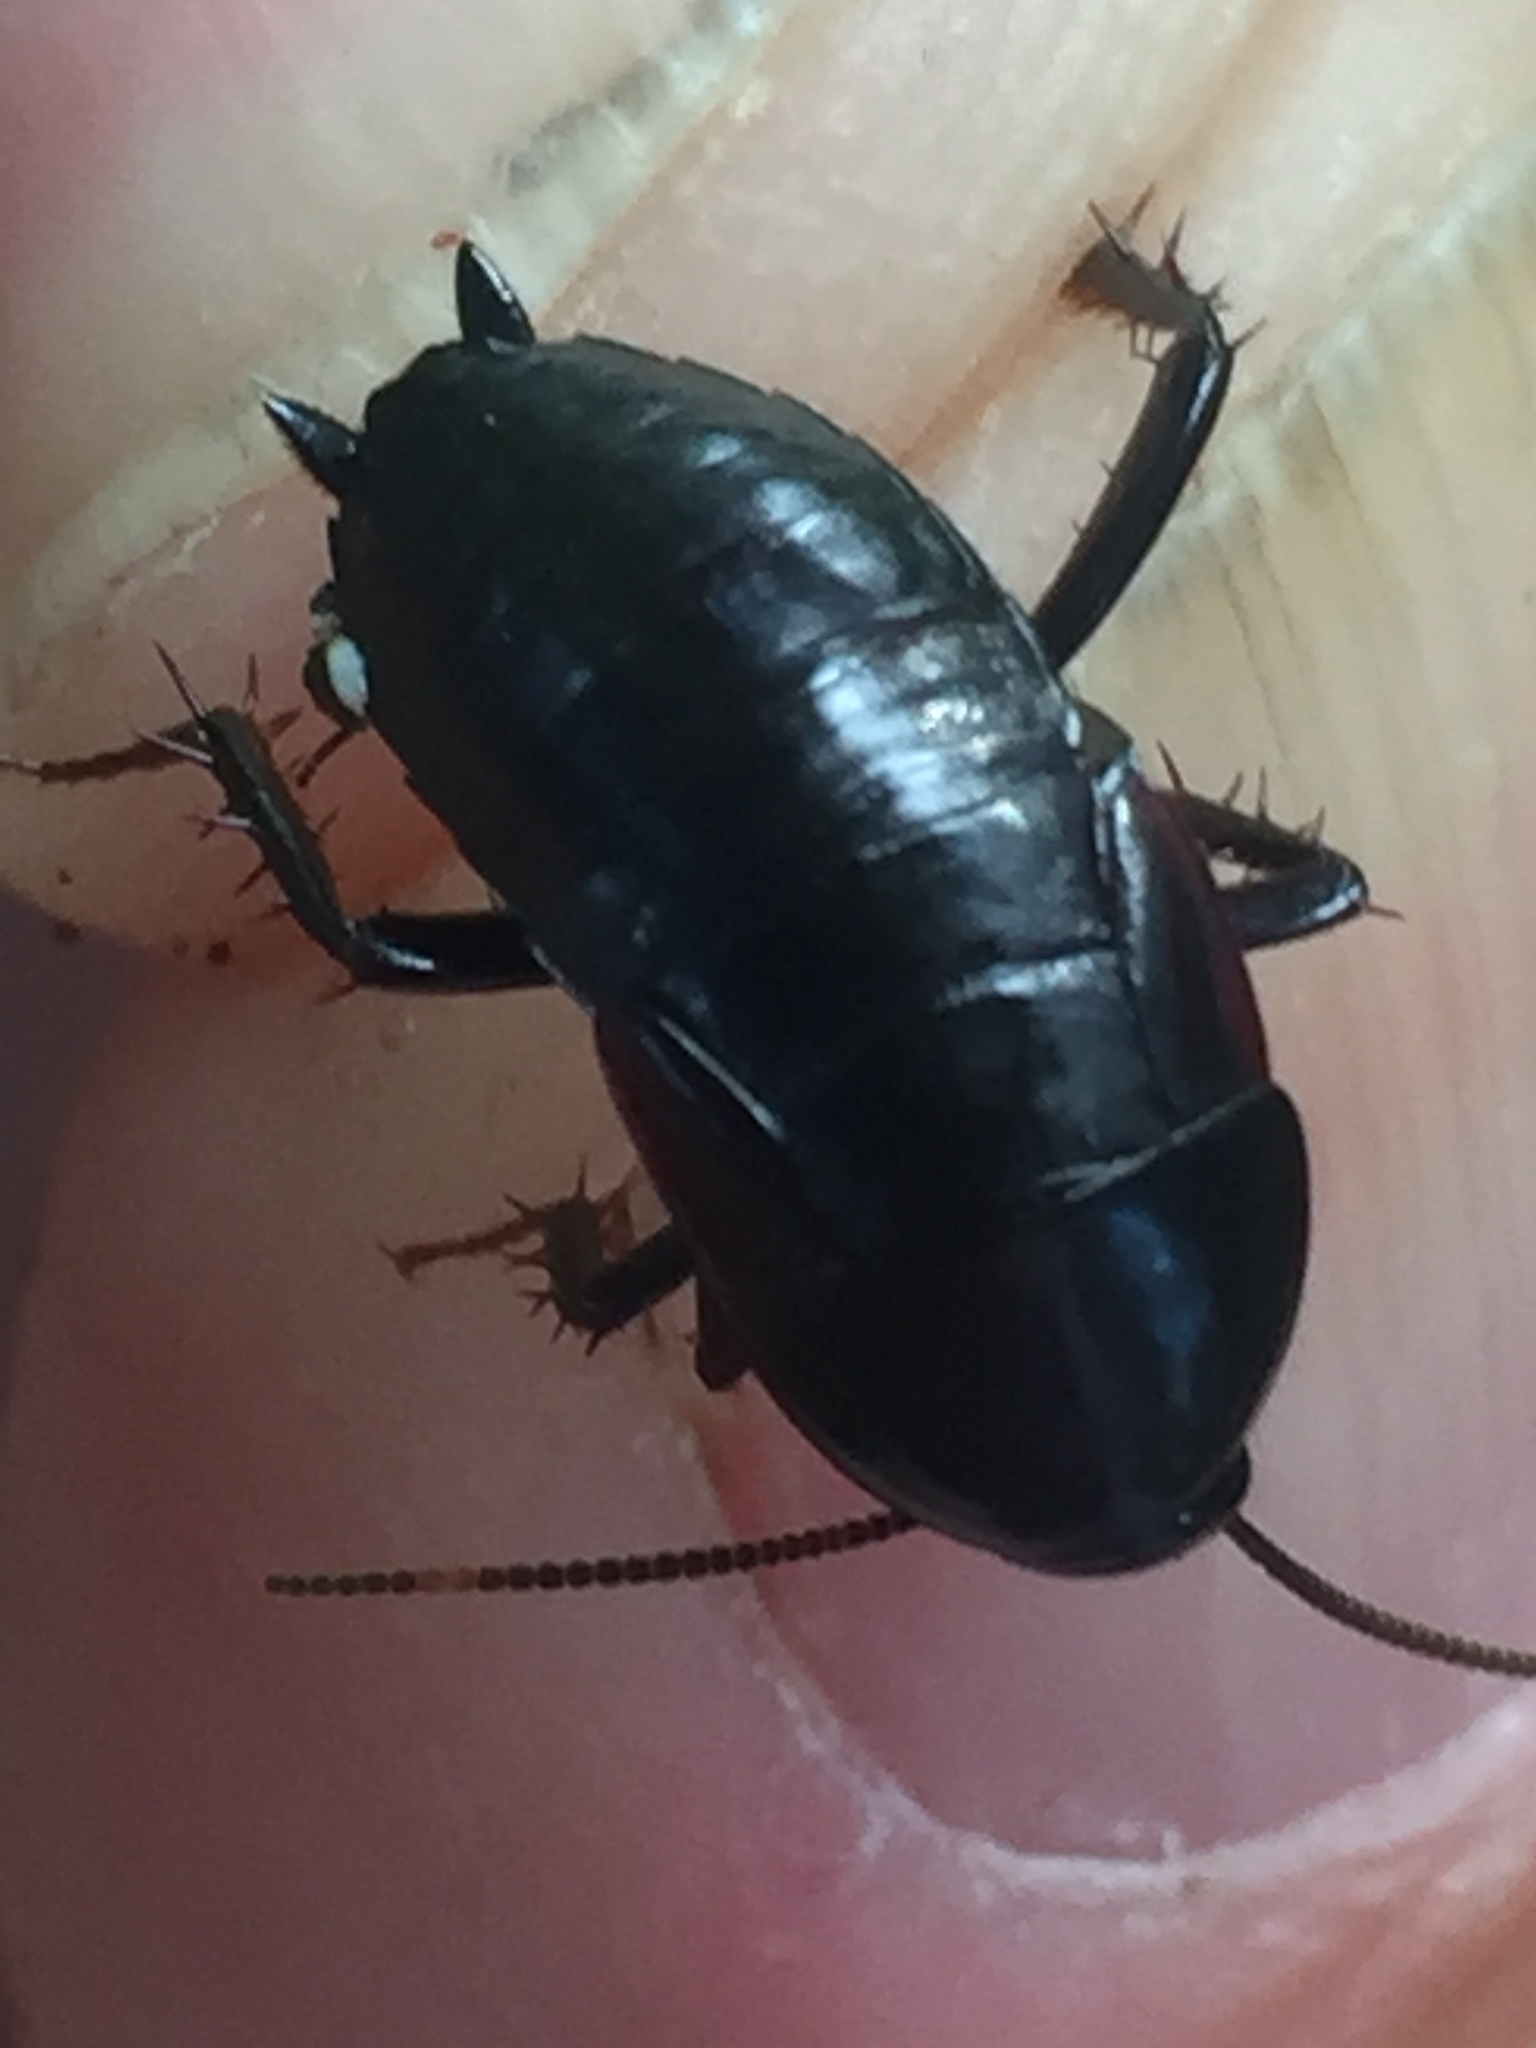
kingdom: Animalia
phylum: Arthropoda
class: Insecta
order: Blattodea
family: Tryonicidae
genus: Tryonicus
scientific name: Tryonicus parvus
